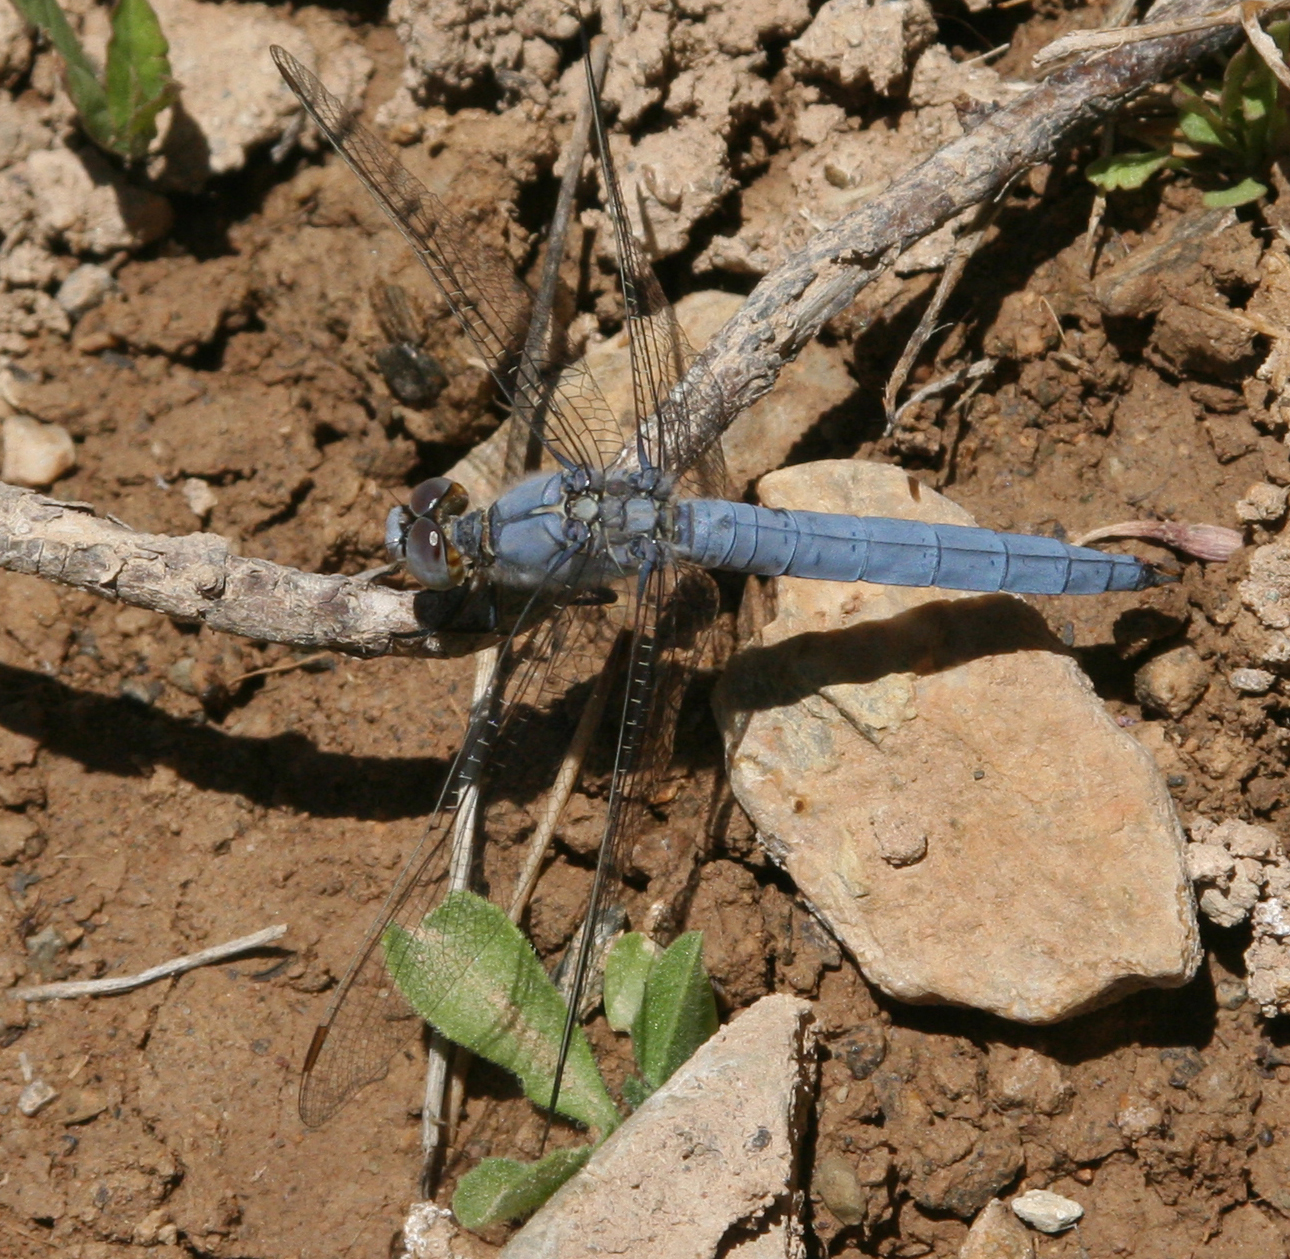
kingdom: Animalia
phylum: Arthropoda
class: Insecta
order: Odonata
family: Libellulidae
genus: Orthetrum
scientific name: Orthetrum brunneum
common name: Southern skimmer
